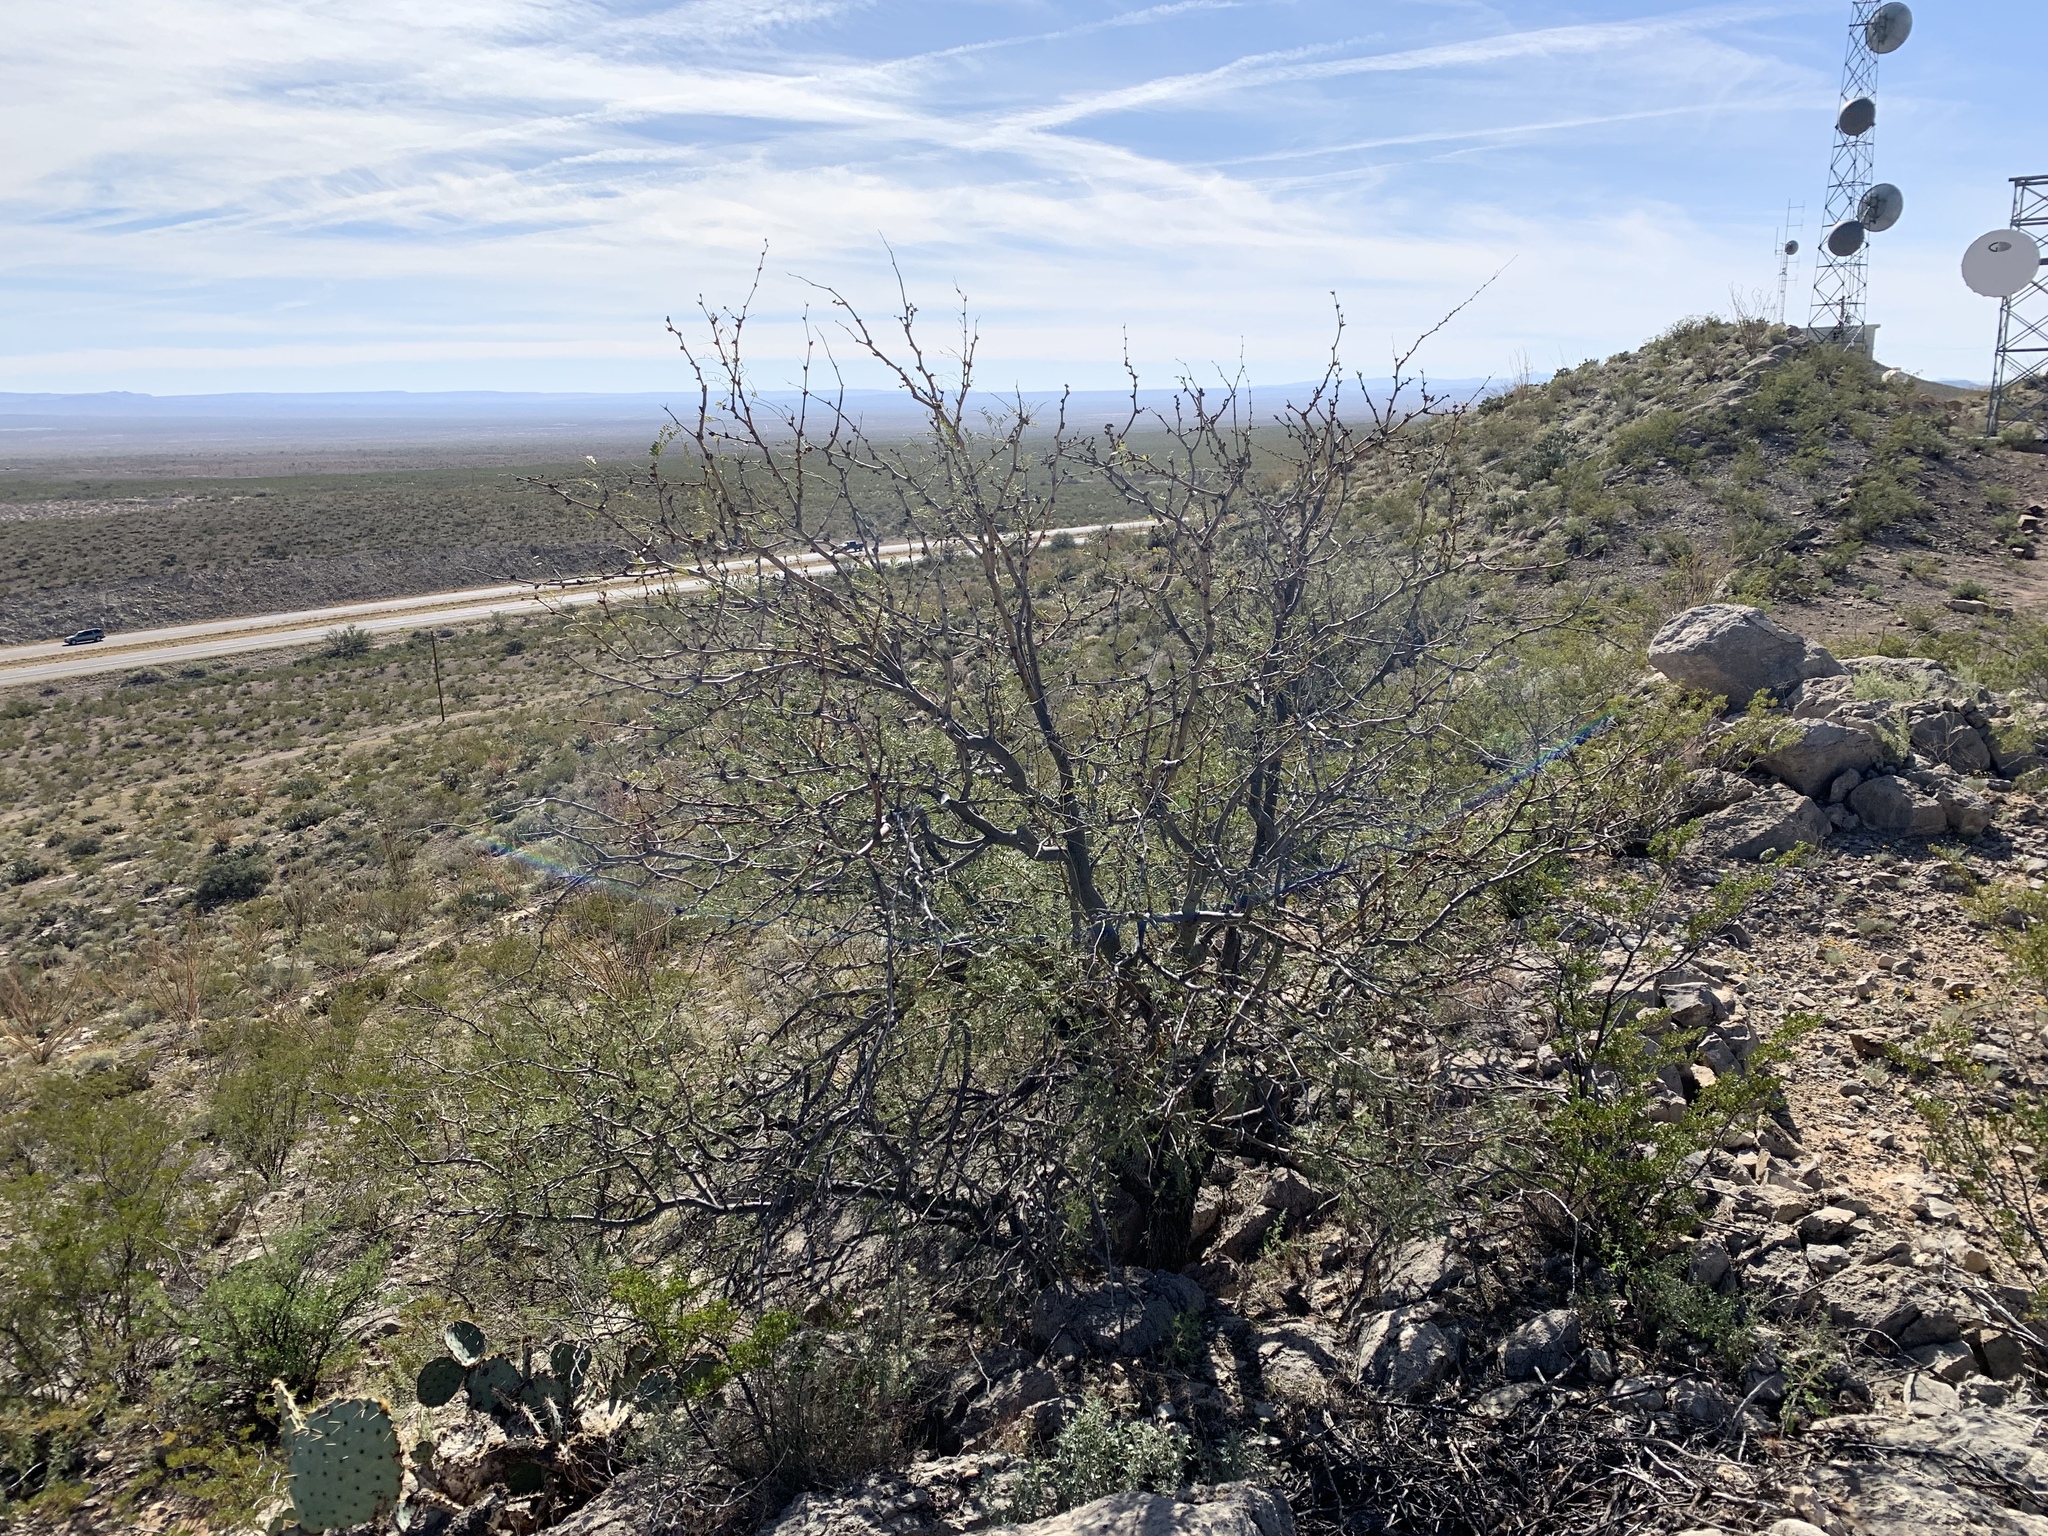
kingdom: Plantae
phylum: Tracheophyta
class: Magnoliopsida
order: Fabales
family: Fabaceae
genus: Prosopis
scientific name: Prosopis glandulosa
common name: Honey mesquite
